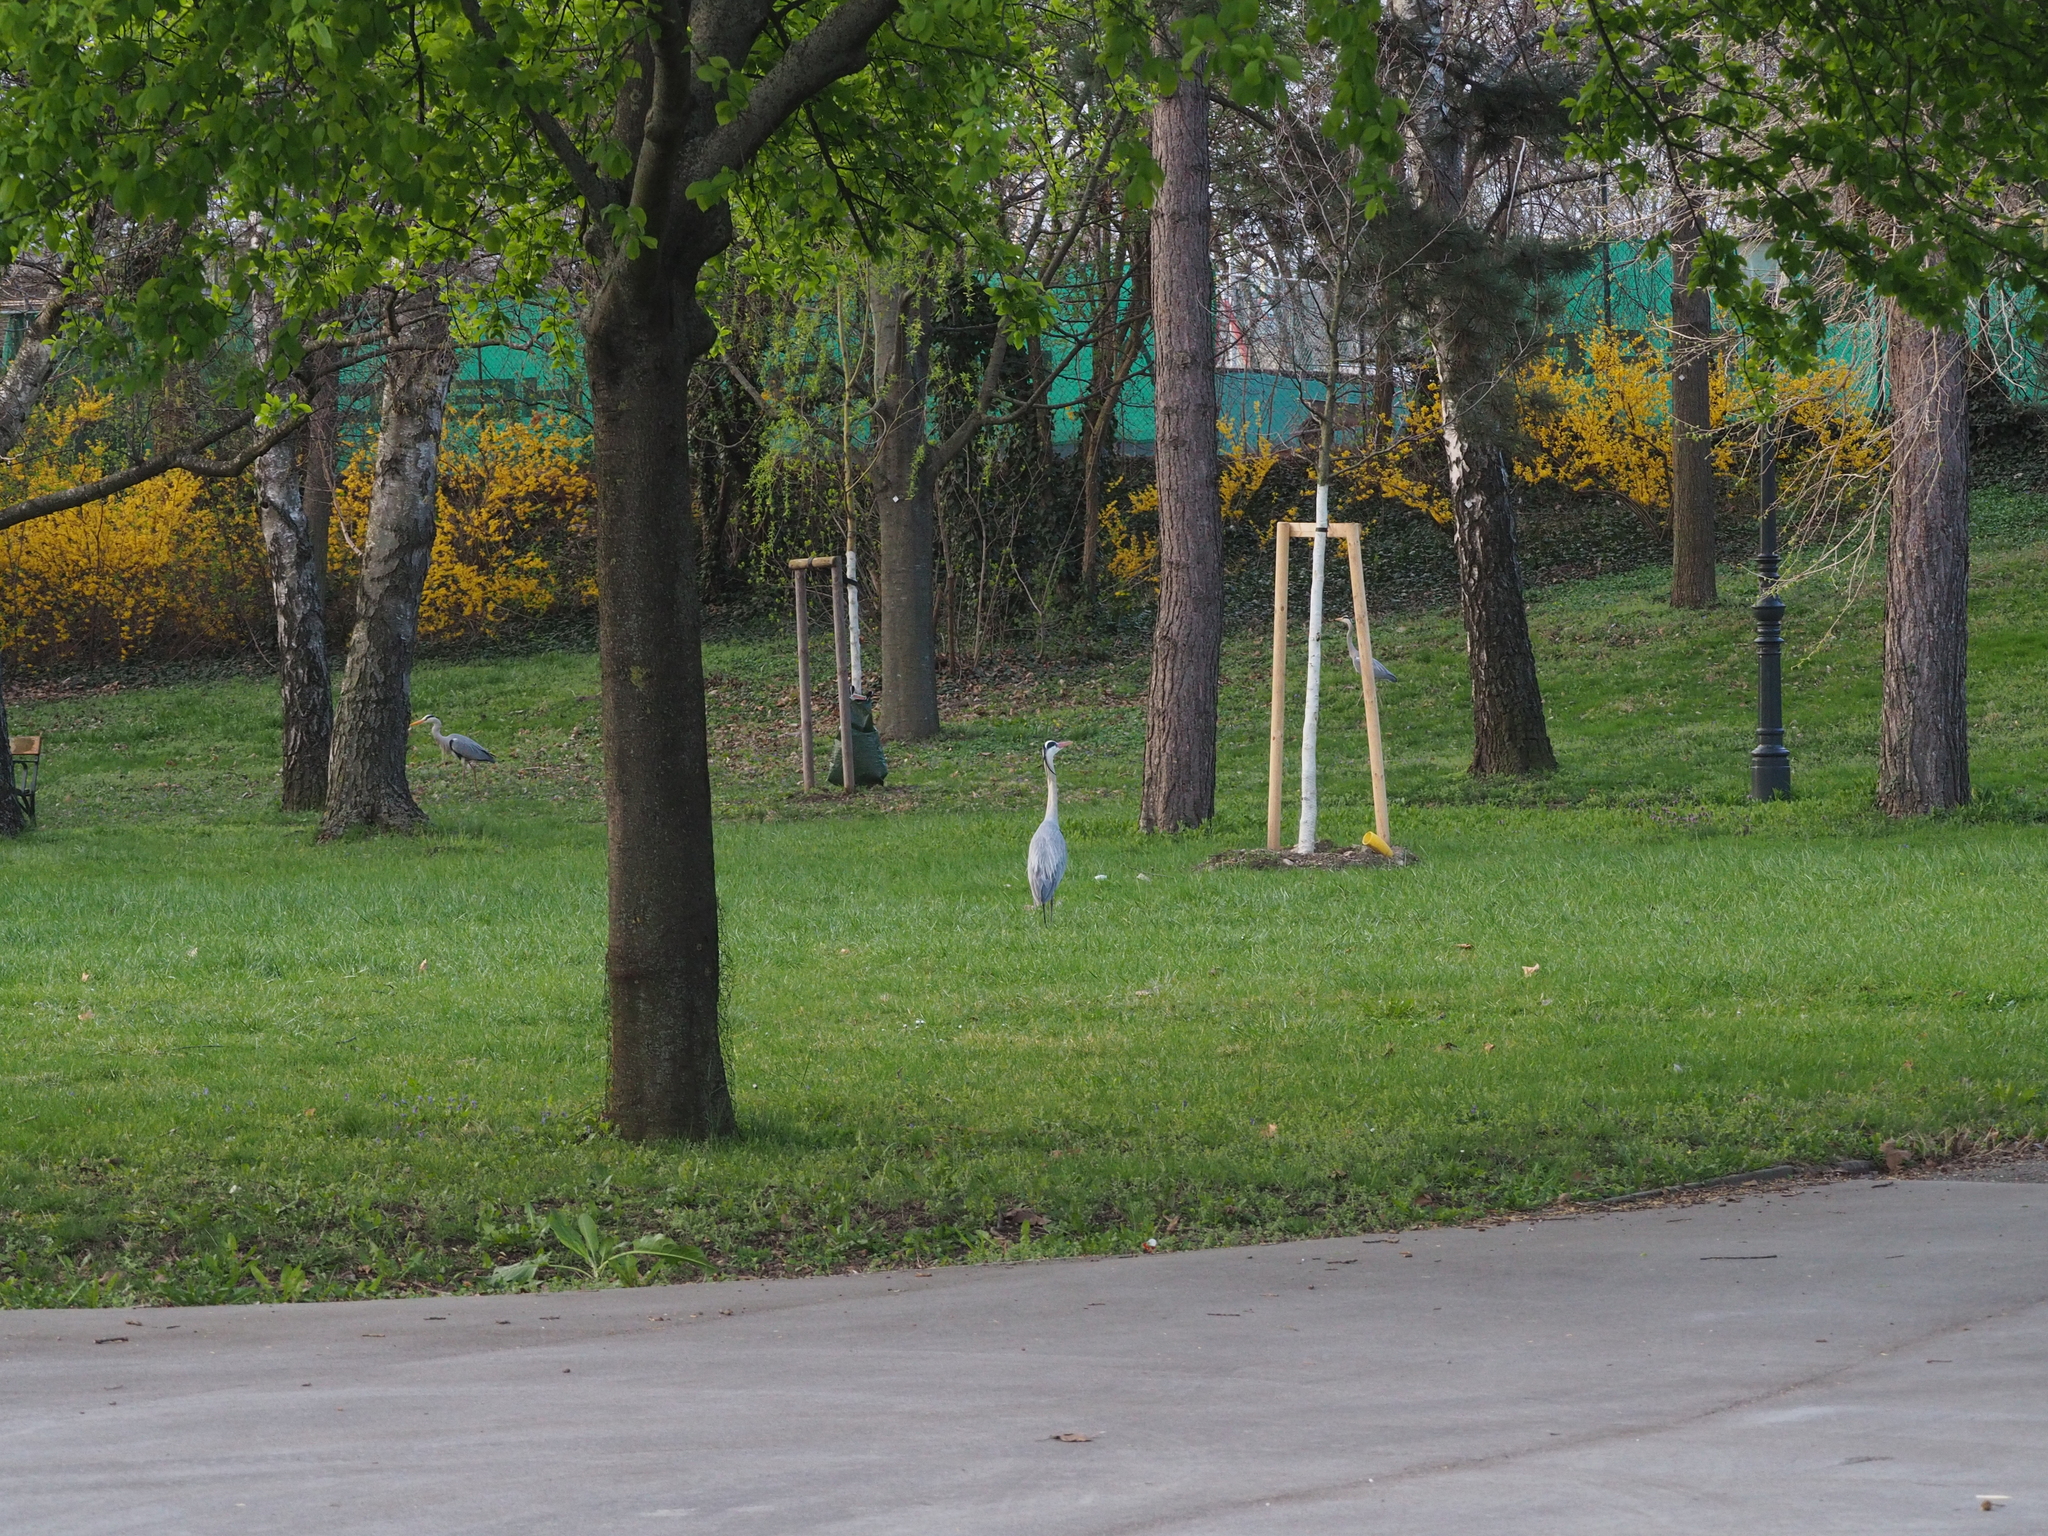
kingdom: Animalia
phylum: Chordata
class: Aves
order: Pelecaniformes
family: Ardeidae
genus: Ardea
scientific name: Ardea cinerea
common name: Grey heron
